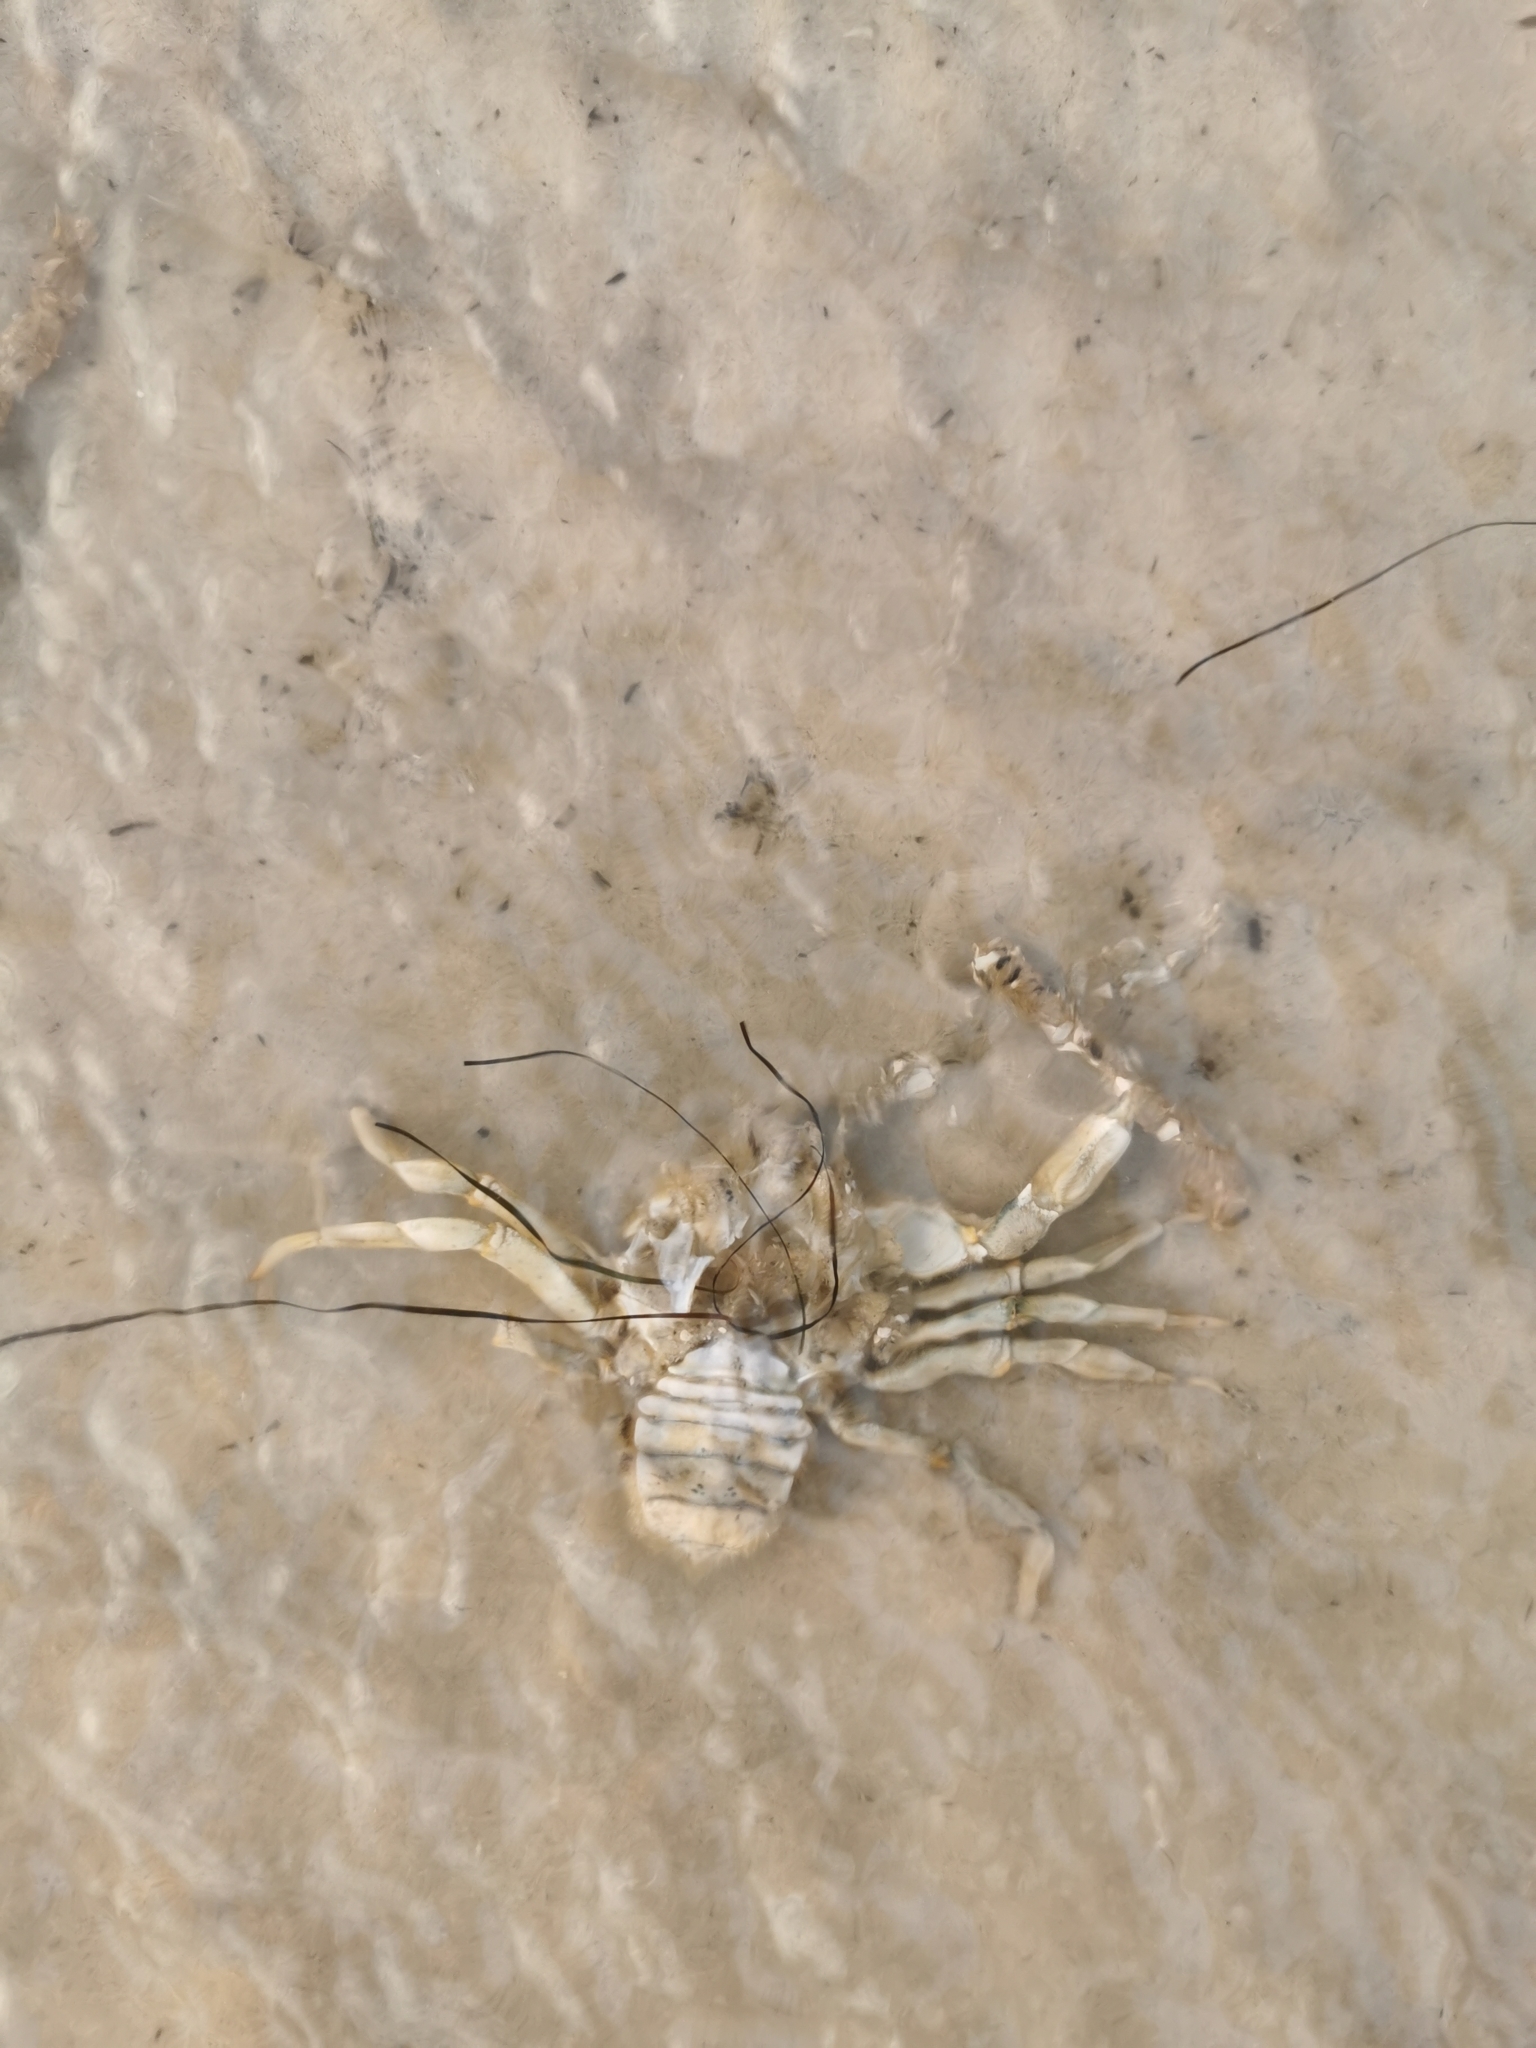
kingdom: Animalia
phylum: Arthropoda
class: Malacostraca
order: Decapoda
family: Carcinidae
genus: Carcinus
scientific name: Carcinus maenas
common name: European green crab
